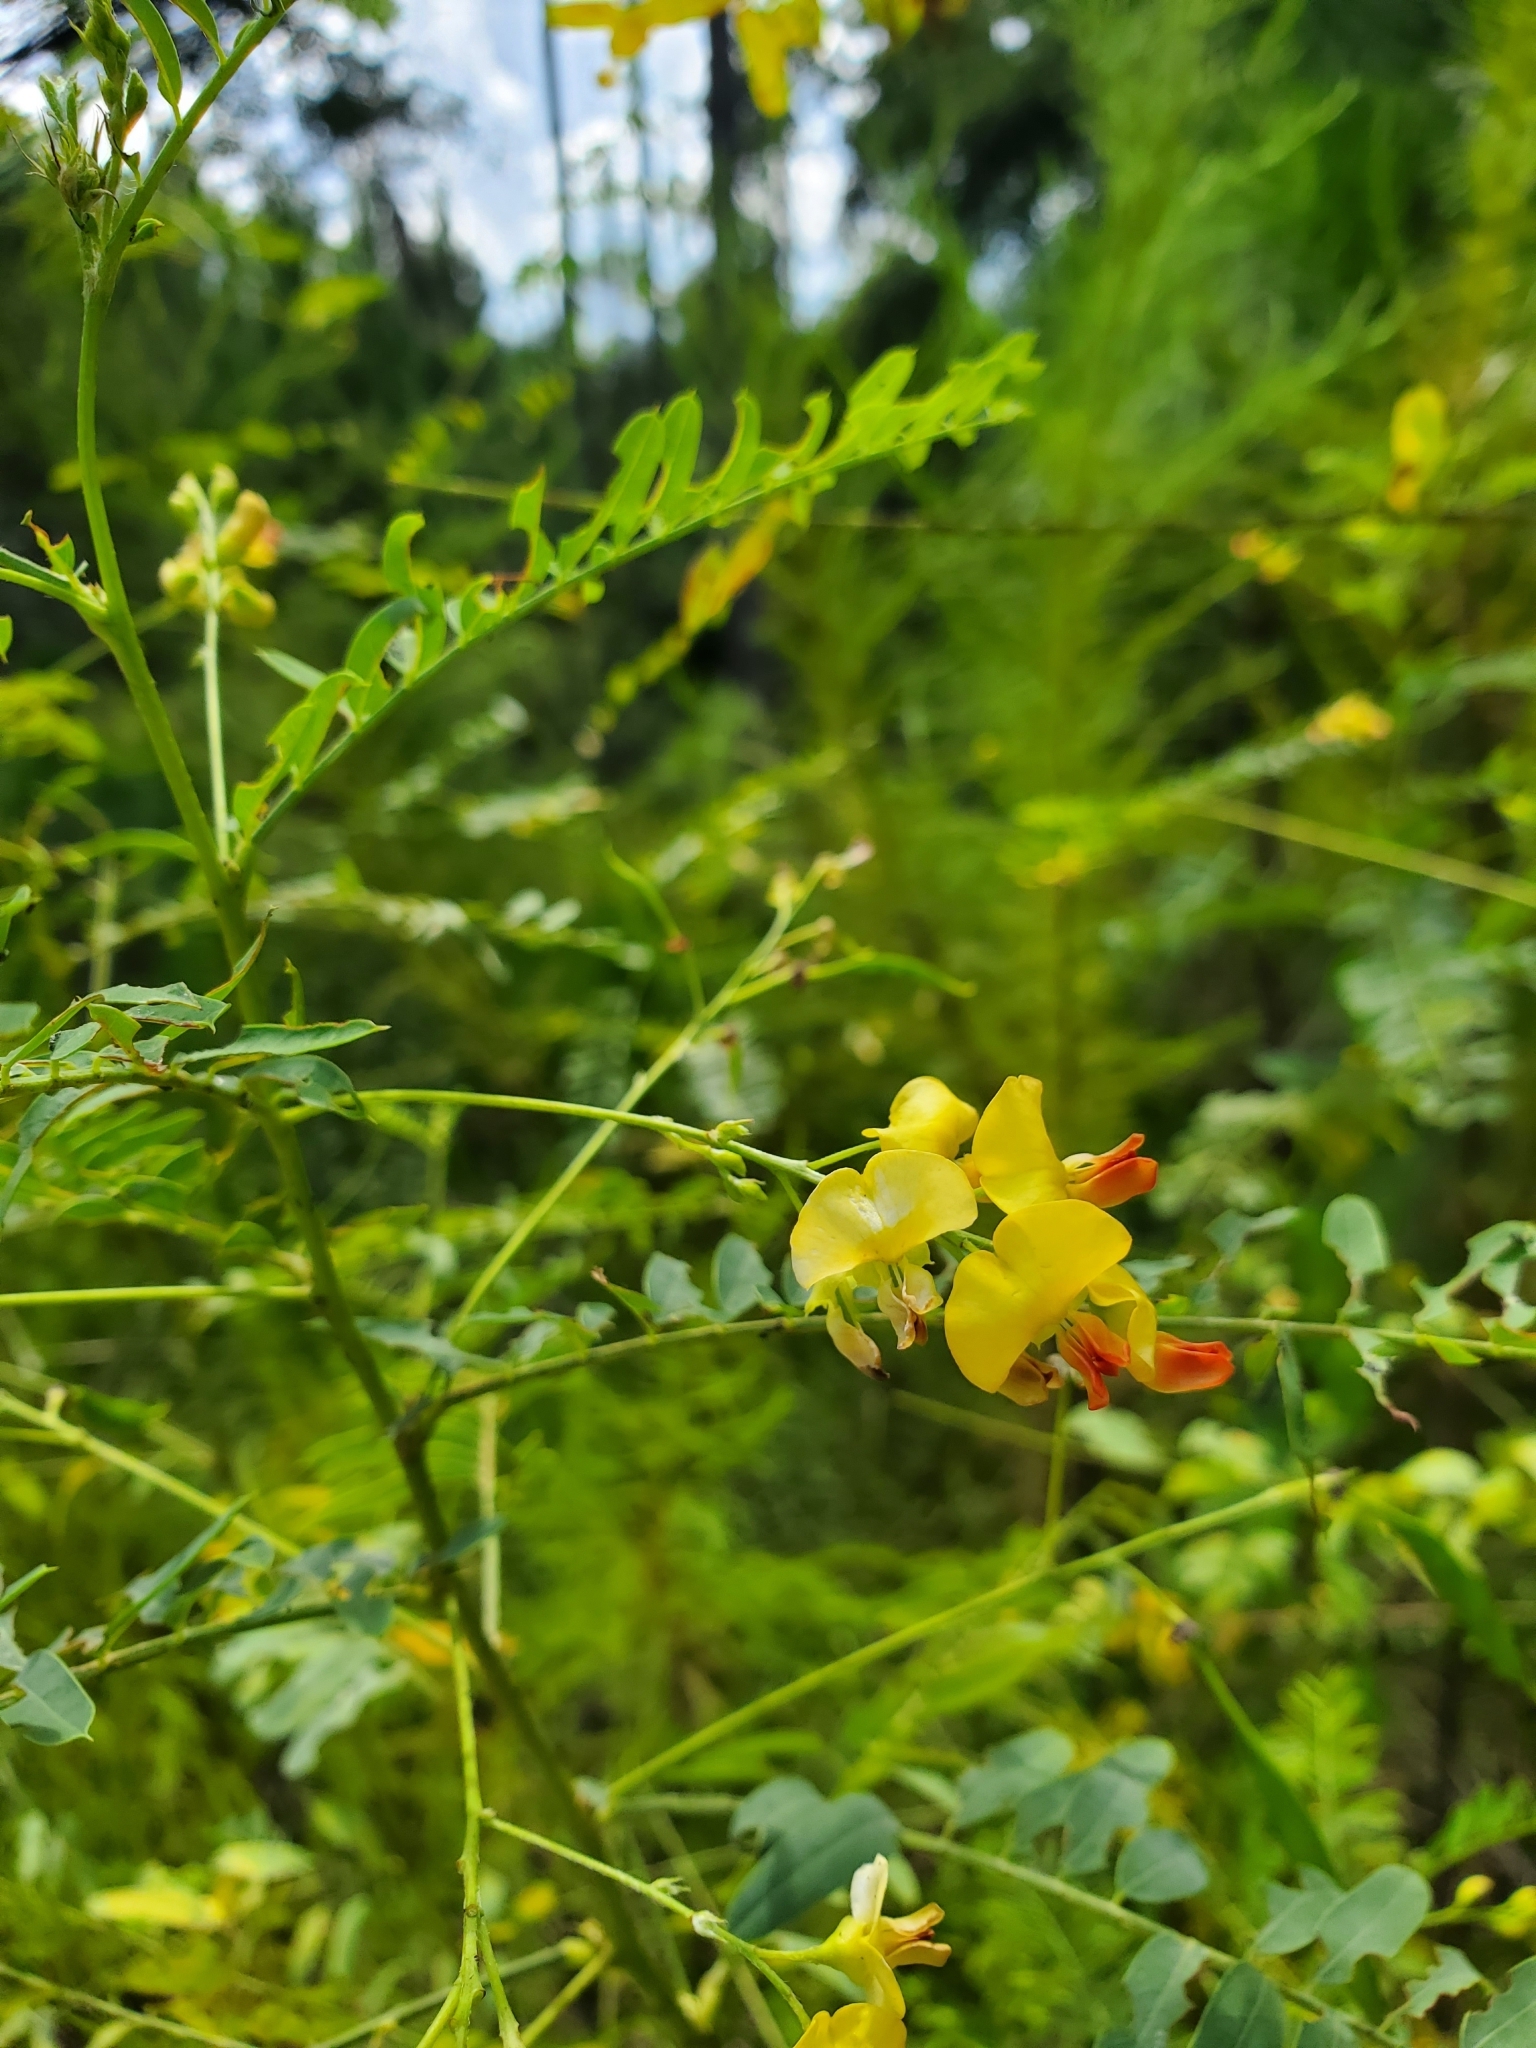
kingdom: Plantae
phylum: Tracheophyta
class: Magnoliopsida
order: Fabales
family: Fabaceae
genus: Sesbania
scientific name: Sesbania vesicaria
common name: Bagpod
